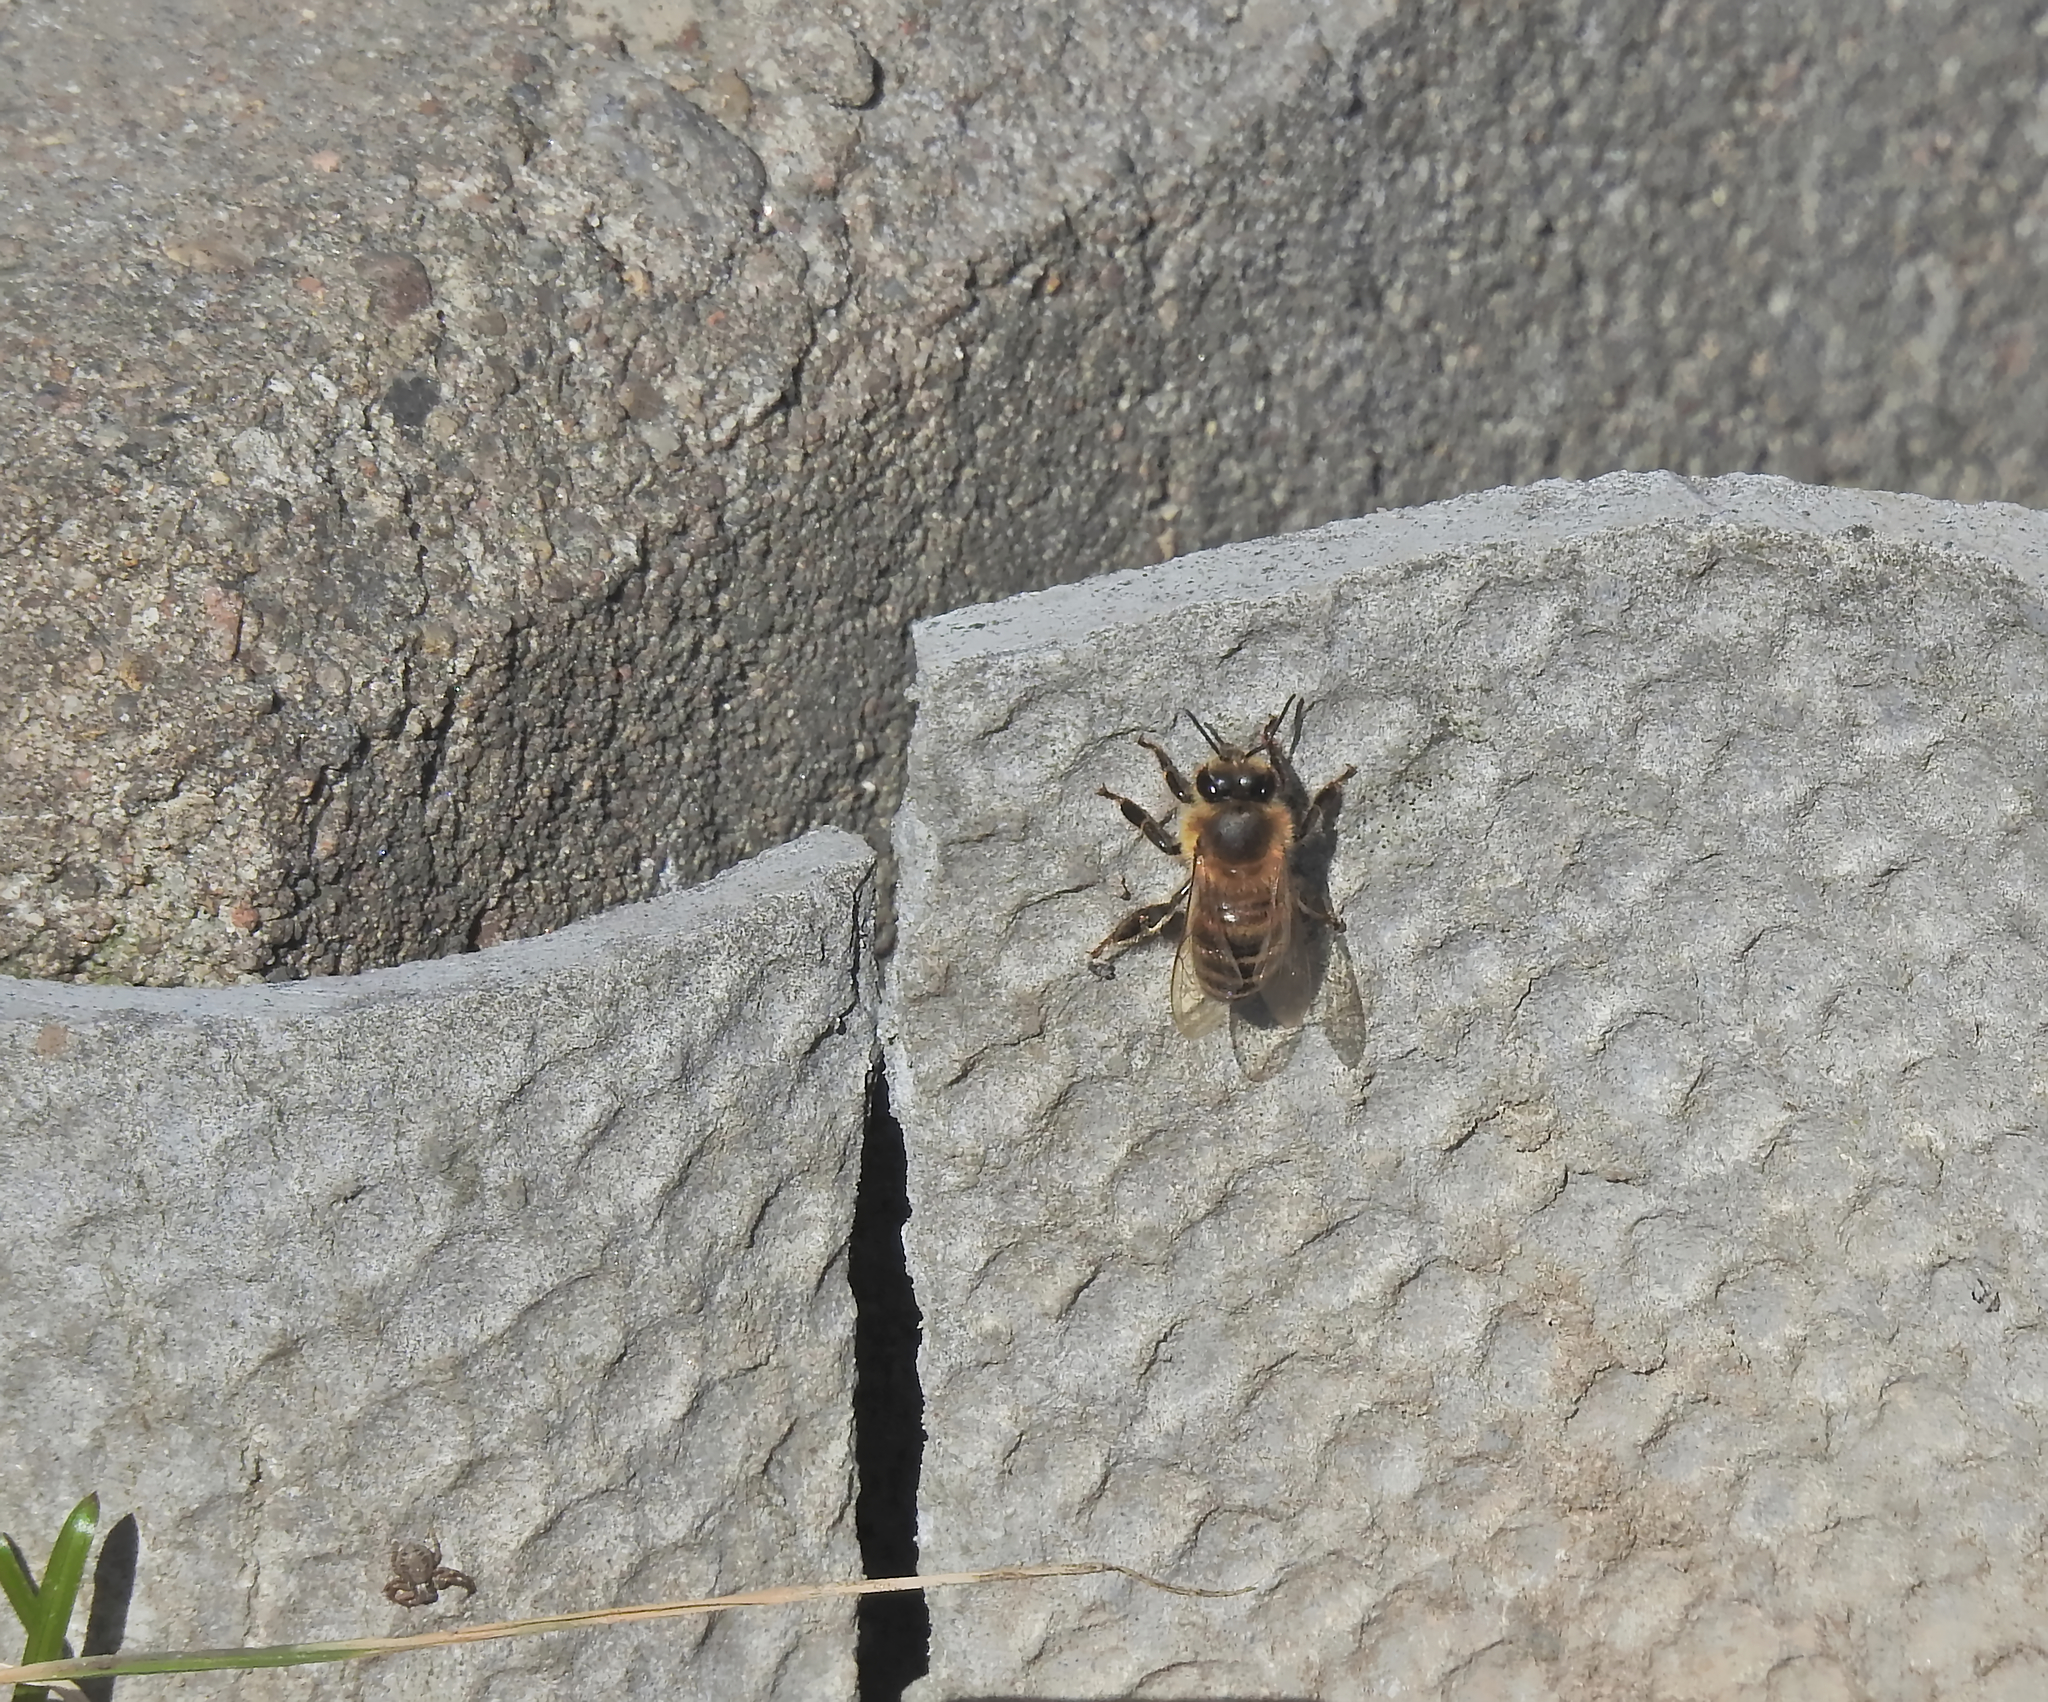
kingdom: Animalia
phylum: Arthropoda
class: Insecta
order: Hymenoptera
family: Apidae
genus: Apis
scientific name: Apis mellifera
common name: Honey bee
